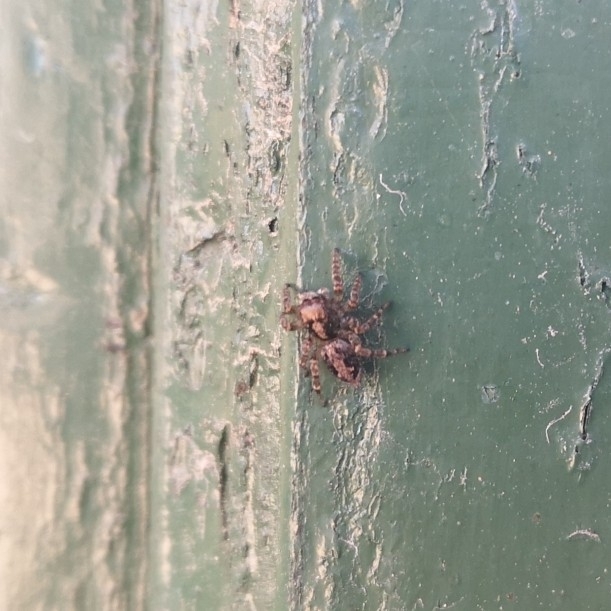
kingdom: Animalia
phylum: Arthropoda
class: Arachnida
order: Araneae
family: Salticidae
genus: Saphrys
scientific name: Saphrys rusticana
